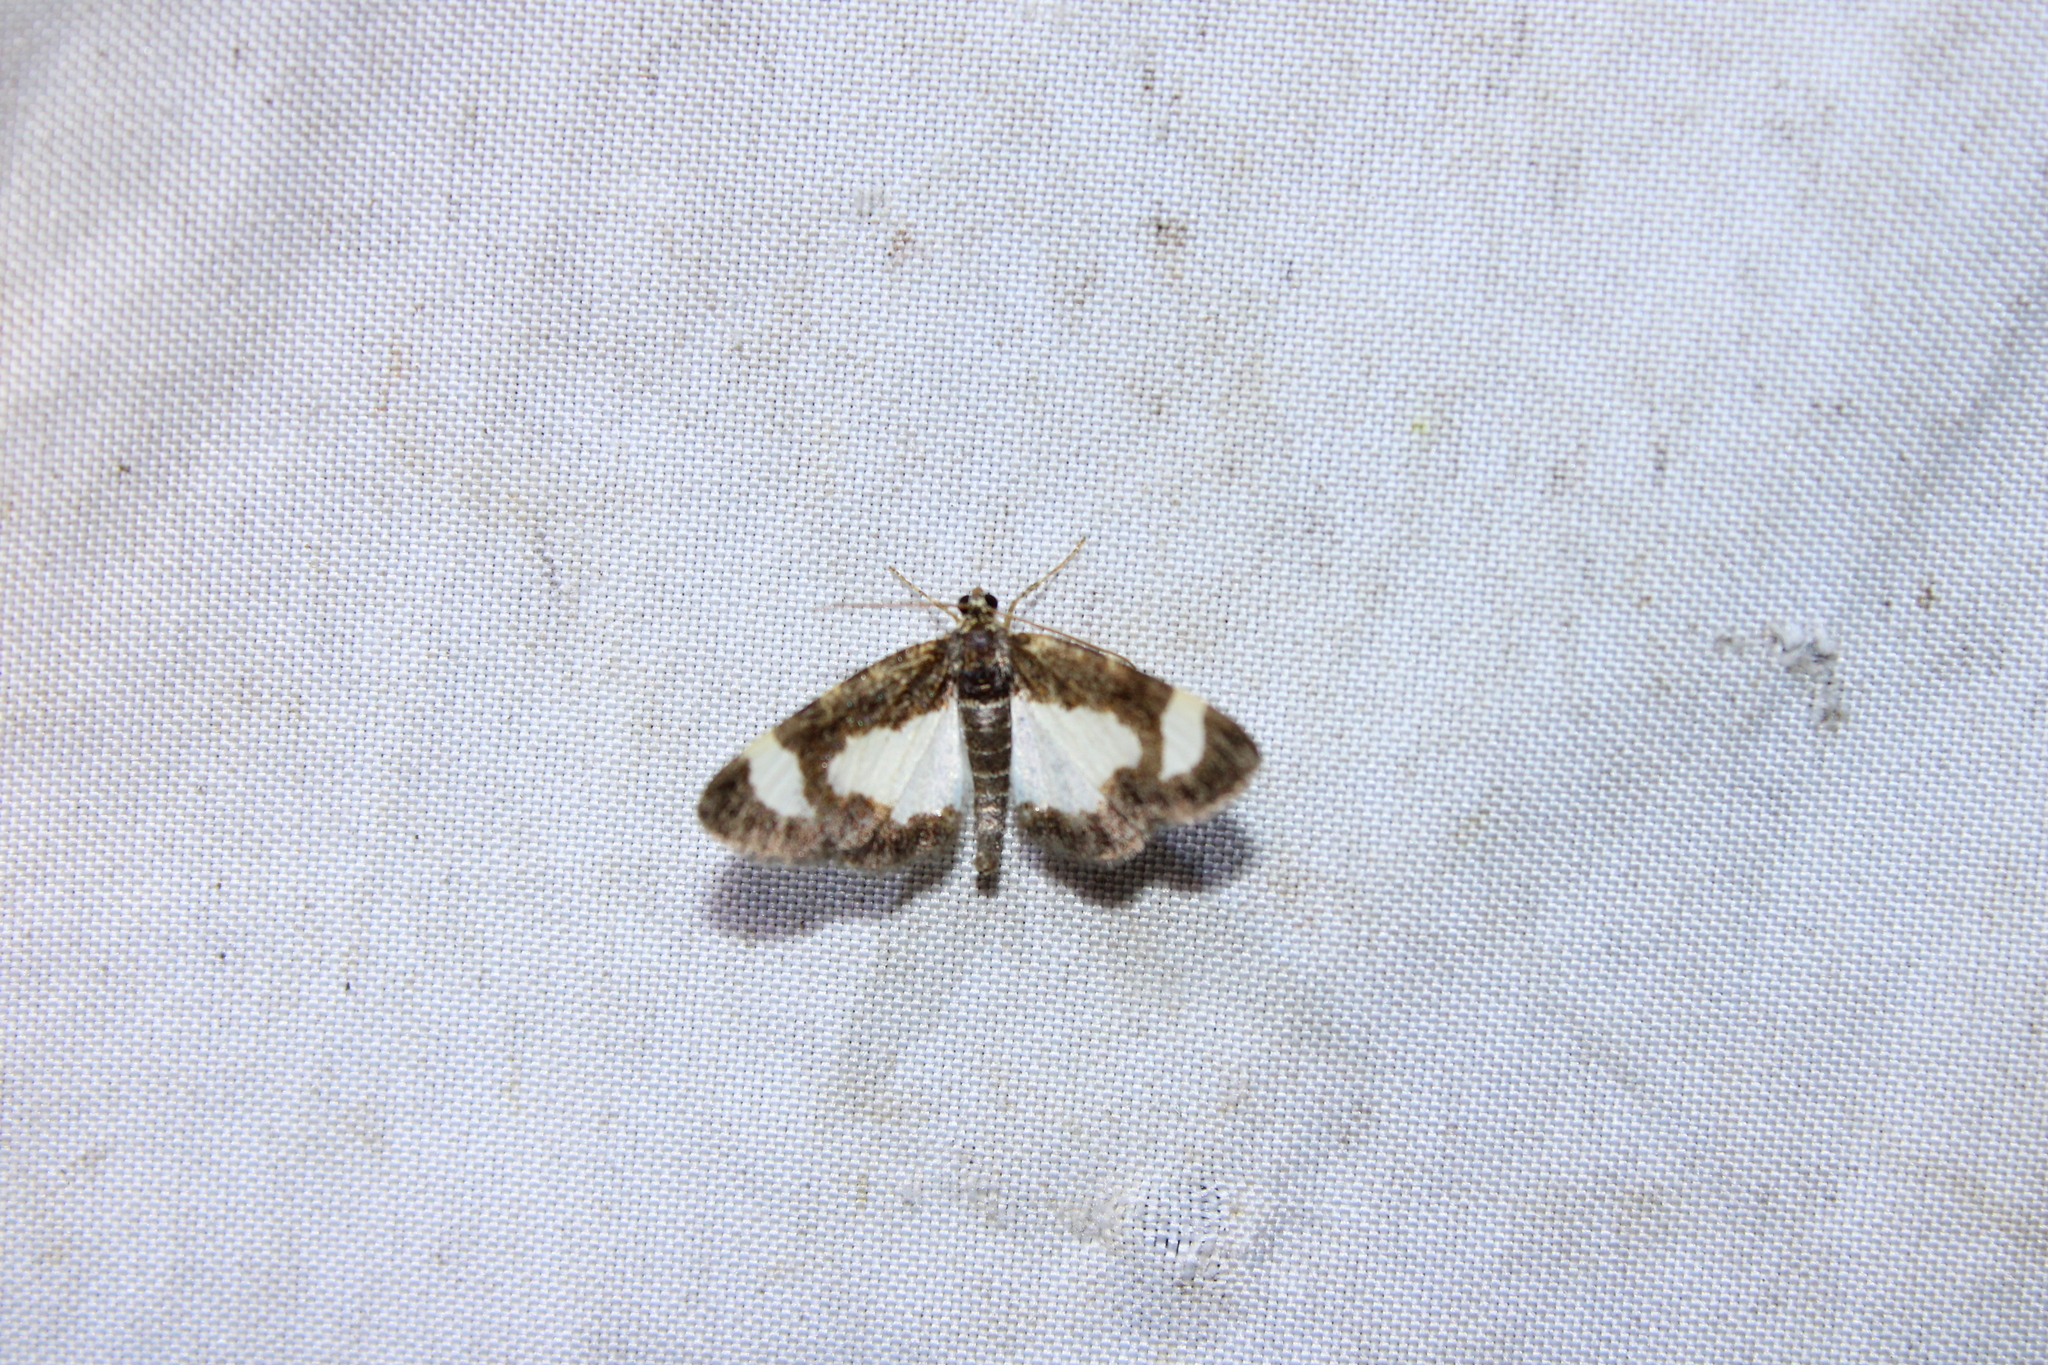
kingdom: Animalia
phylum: Arthropoda
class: Insecta
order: Lepidoptera
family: Geometridae
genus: Heliomata
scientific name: Heliomata cycladata
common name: Common spring moth
